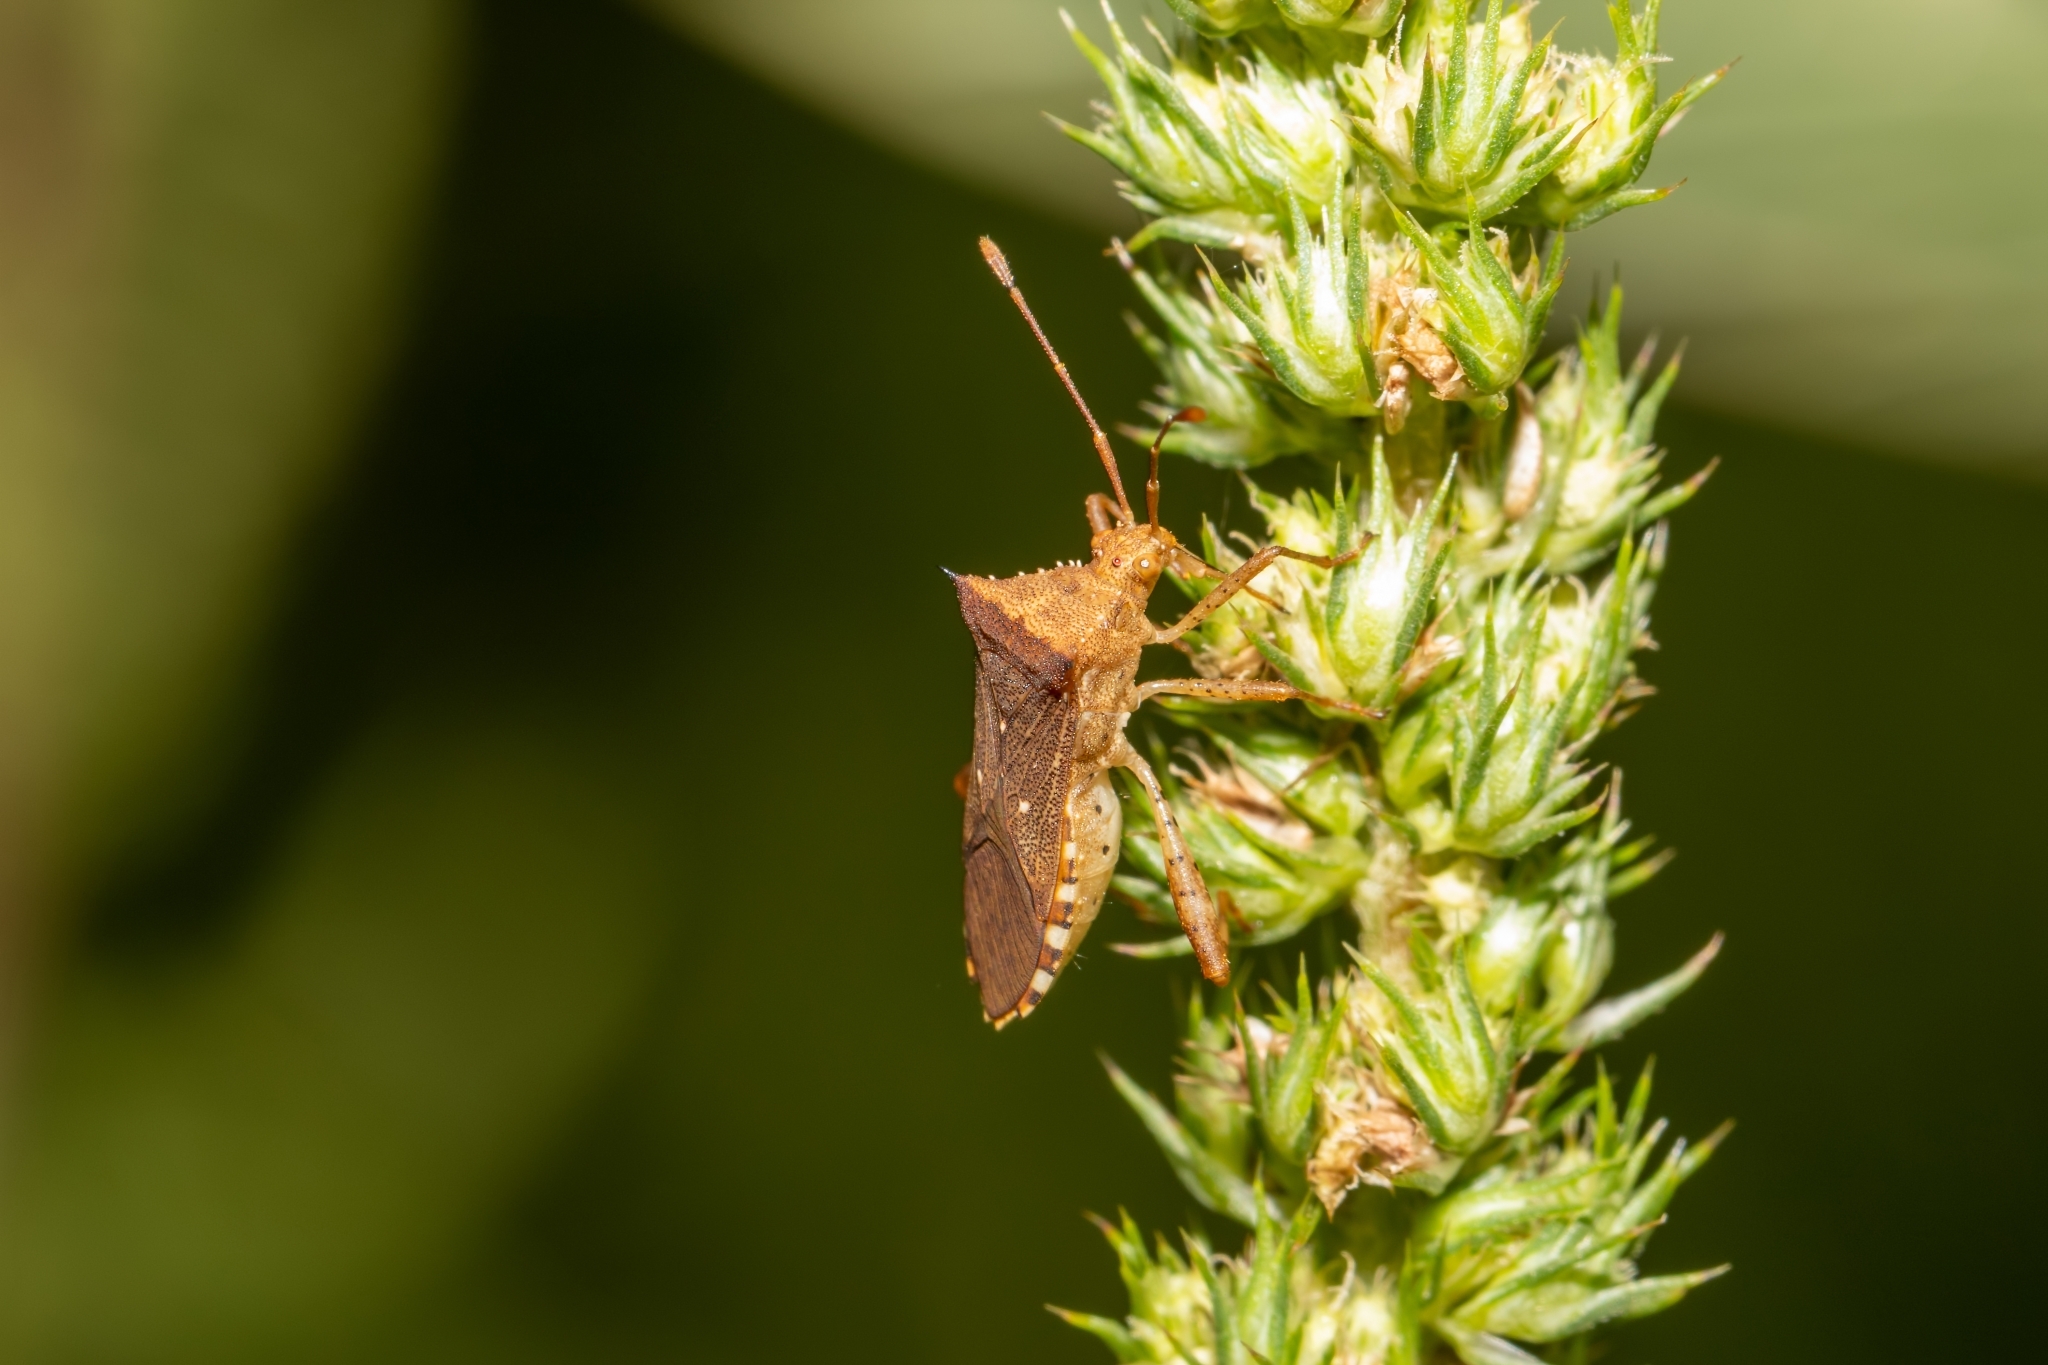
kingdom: Animalia
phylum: Arthropoda
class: Insecta
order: Hemiptera
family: Coreidae
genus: Zicca
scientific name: Zicca taeniola
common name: Leaf-footed bug
